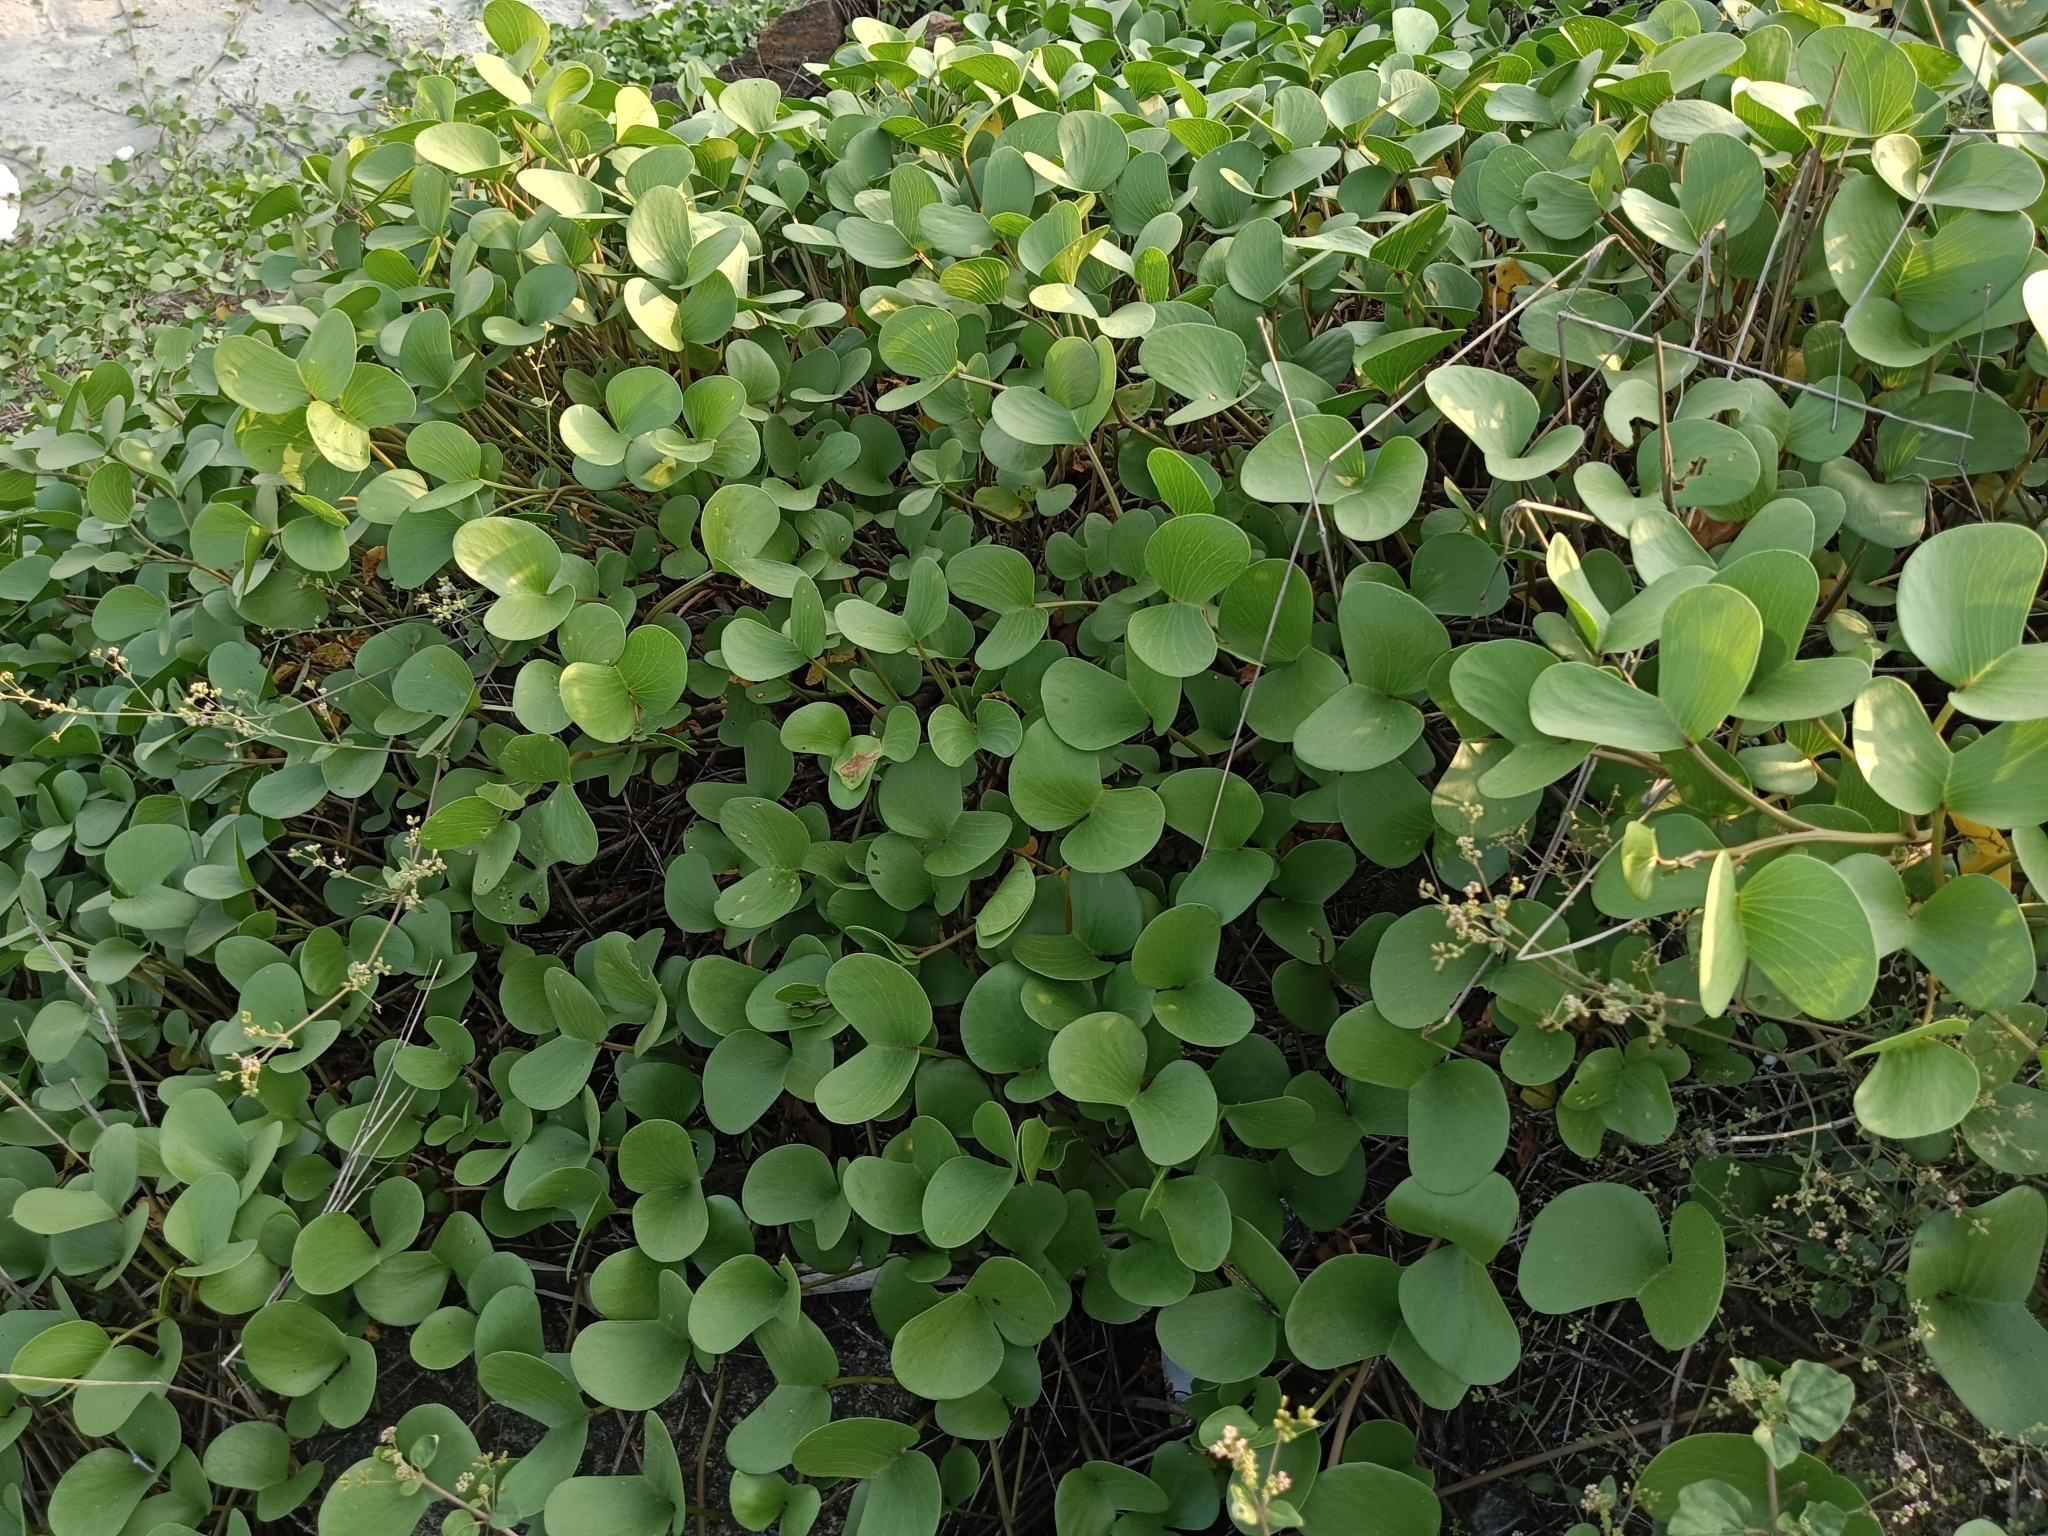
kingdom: Plantae
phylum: Tracheophyta
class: Magnoliopsida
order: Solanales
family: Convolvulaceae
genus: Ipomoea
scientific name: Ipomoea pes-caprae
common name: Beach morning glory
